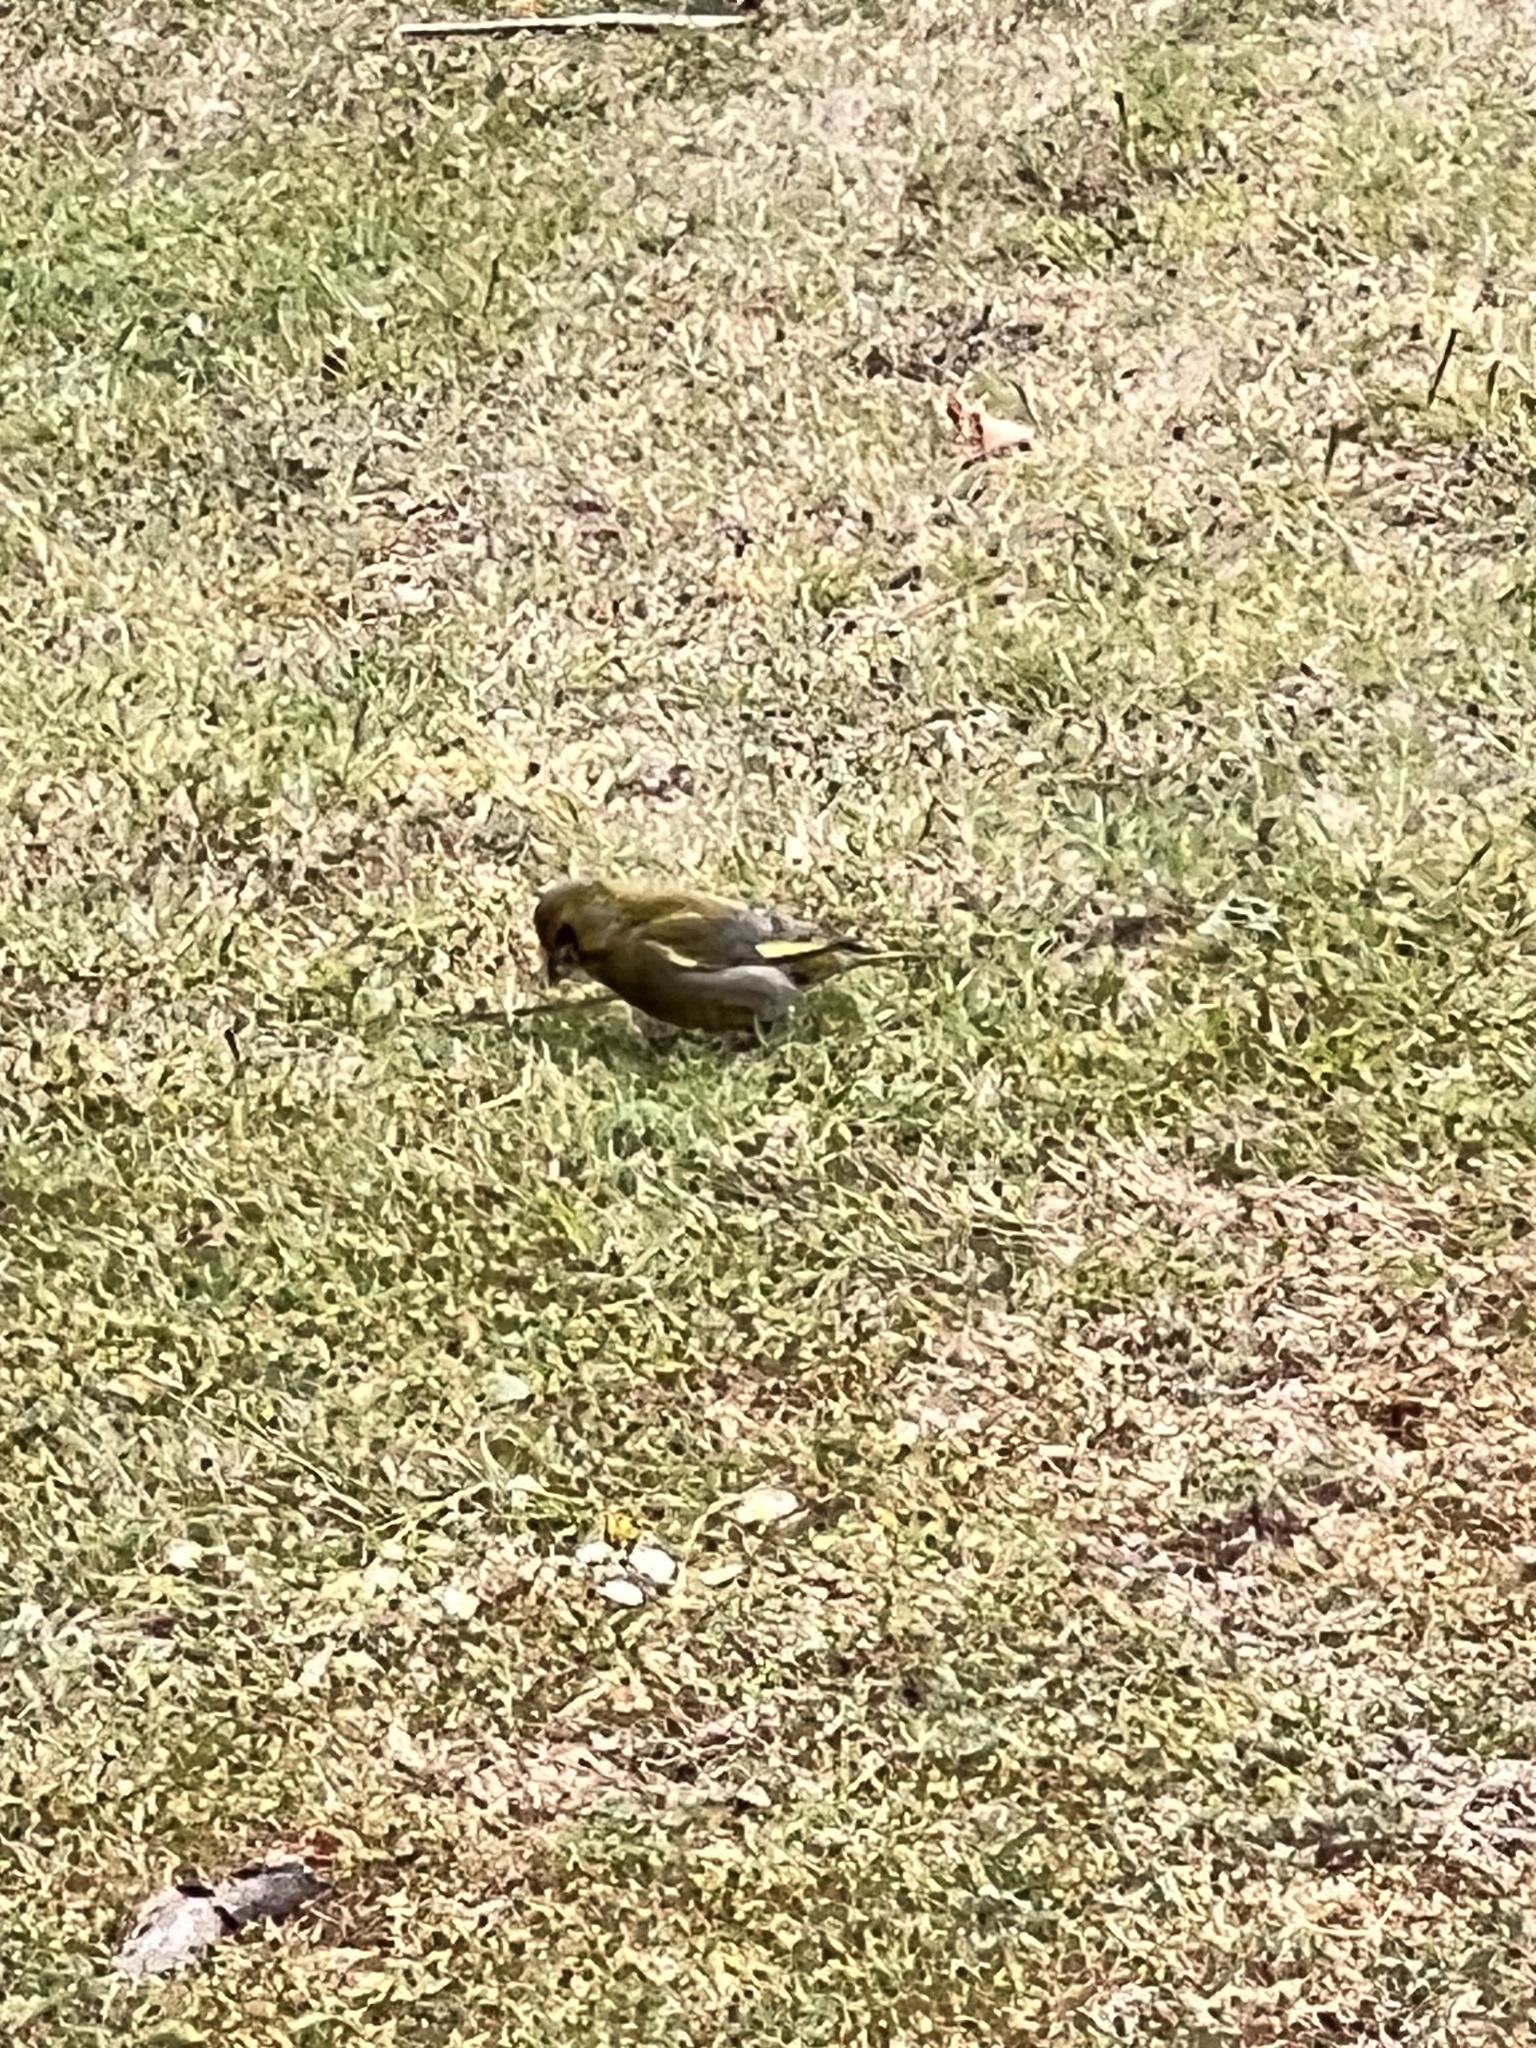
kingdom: Plantae
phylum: Tracheophyta
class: Liliopsida
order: Poales
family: Poaceae
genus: Chloris
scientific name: Chloris chloris
